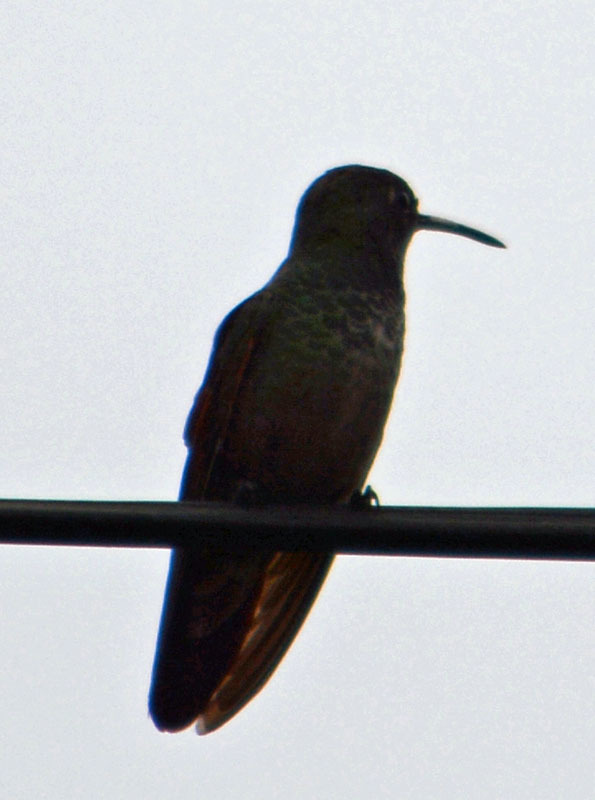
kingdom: Animalia
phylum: Chordata
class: Aves
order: Apodiformes
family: Trochilidae
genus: Saucerottia
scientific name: Saucerottia beryllina
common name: Berylline hummingbird
